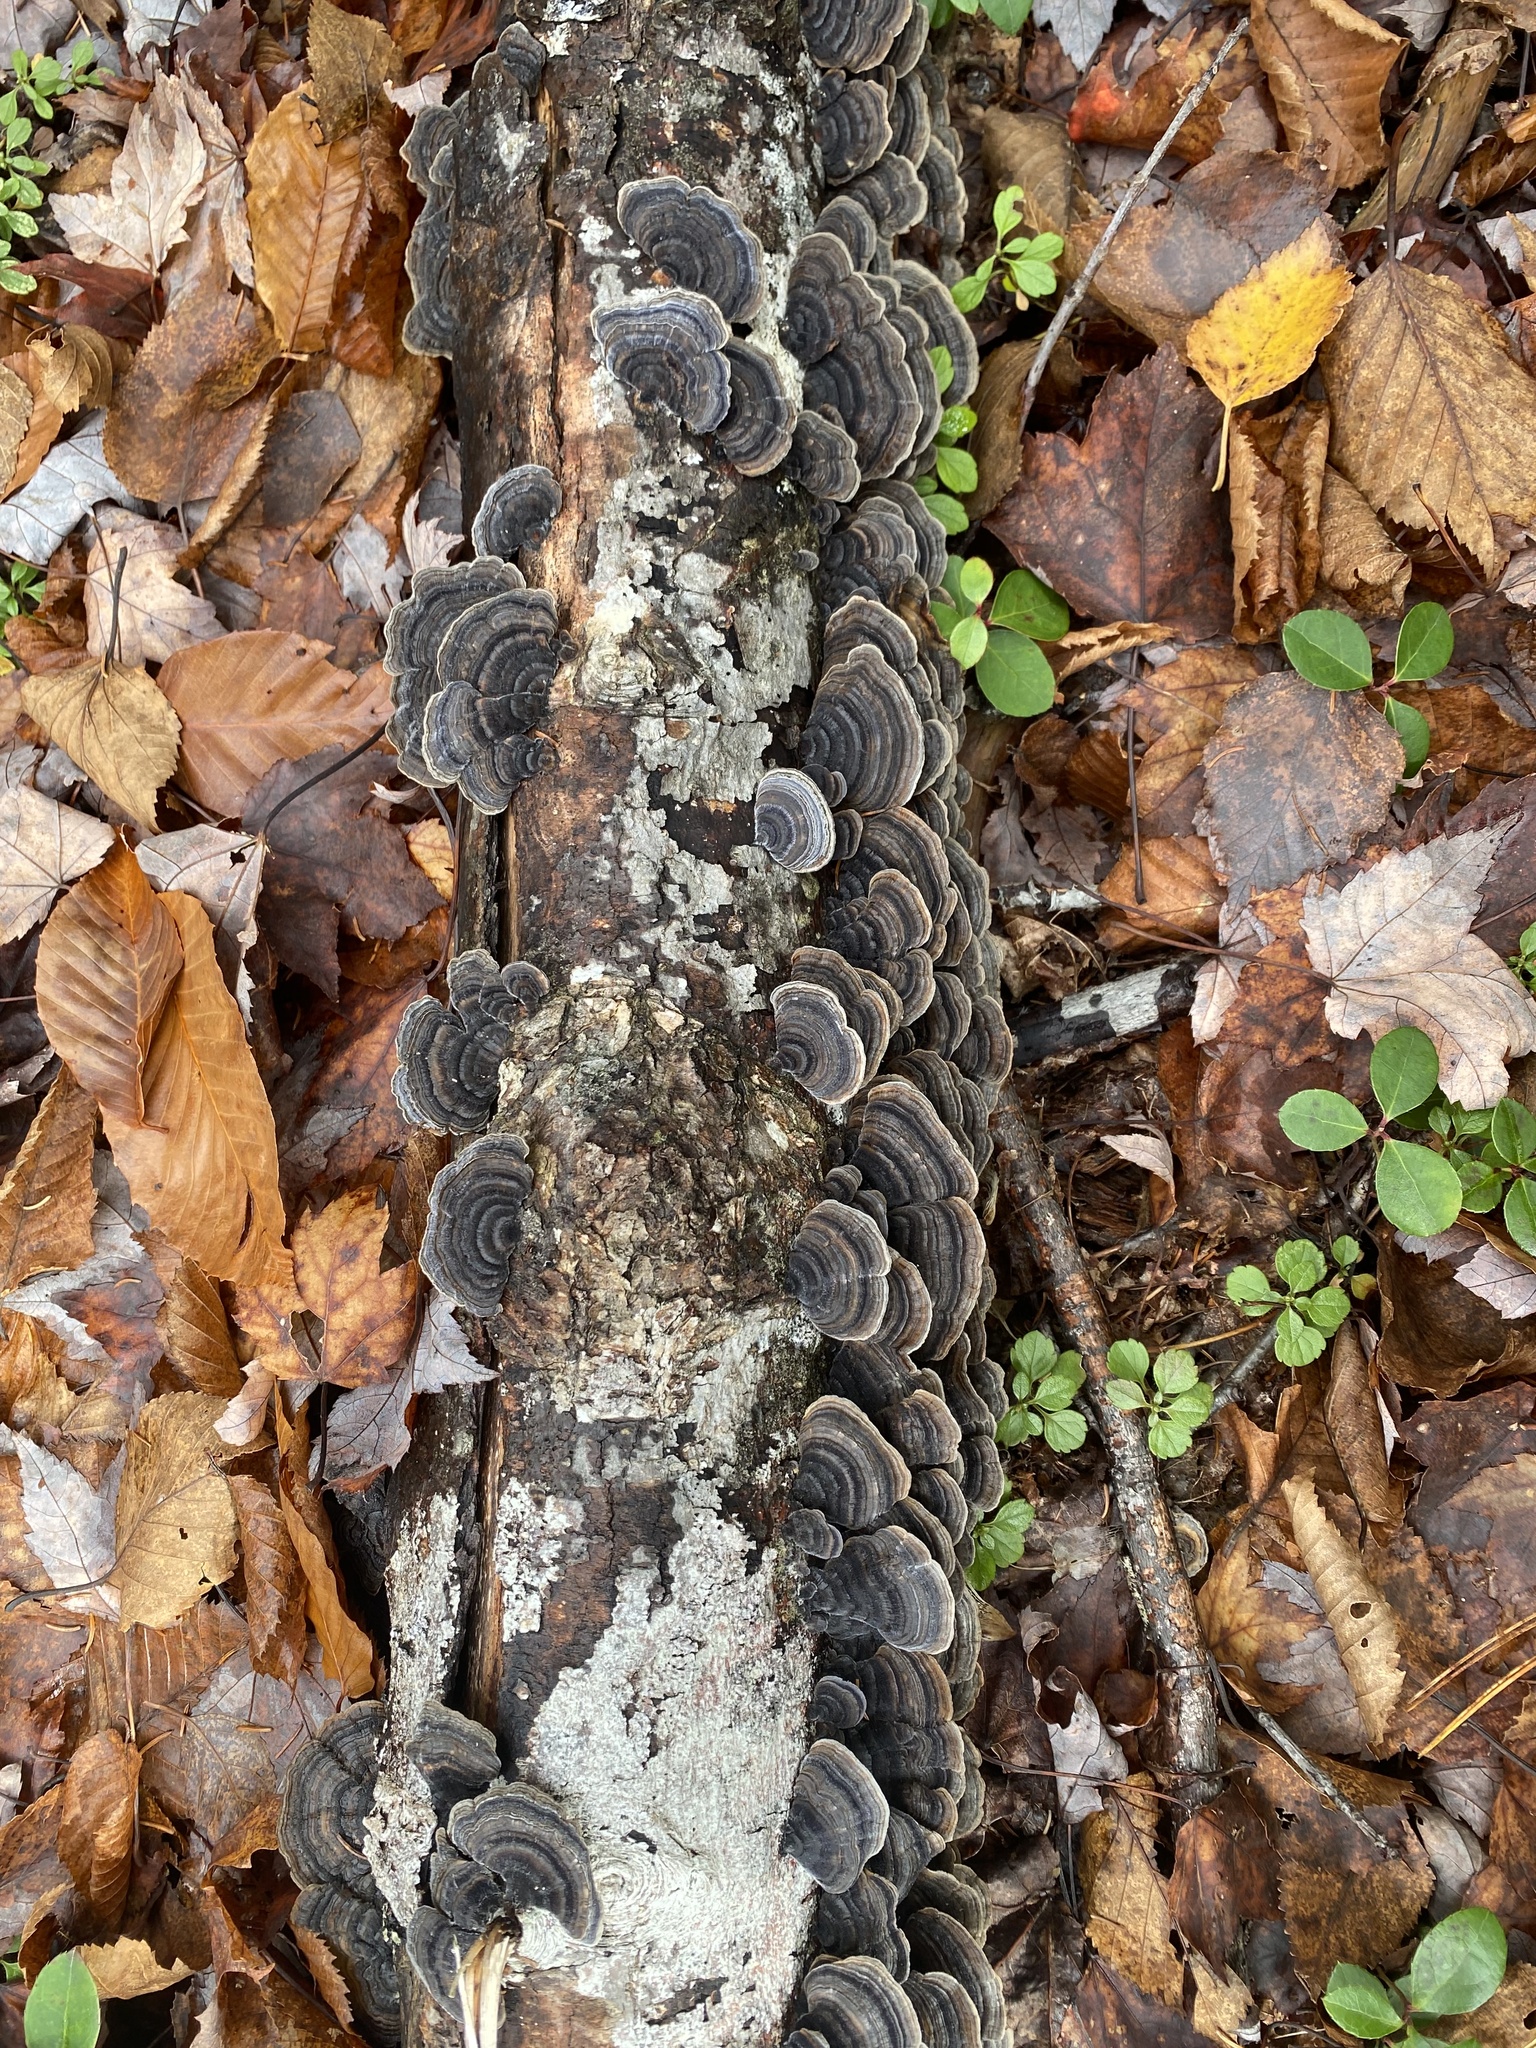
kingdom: Fungi
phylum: Basidiomycota
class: Agaricomycetes
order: Polyporales
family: Polyporaceae
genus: Trametes
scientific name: Trametes versicolor
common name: Turkeytail
